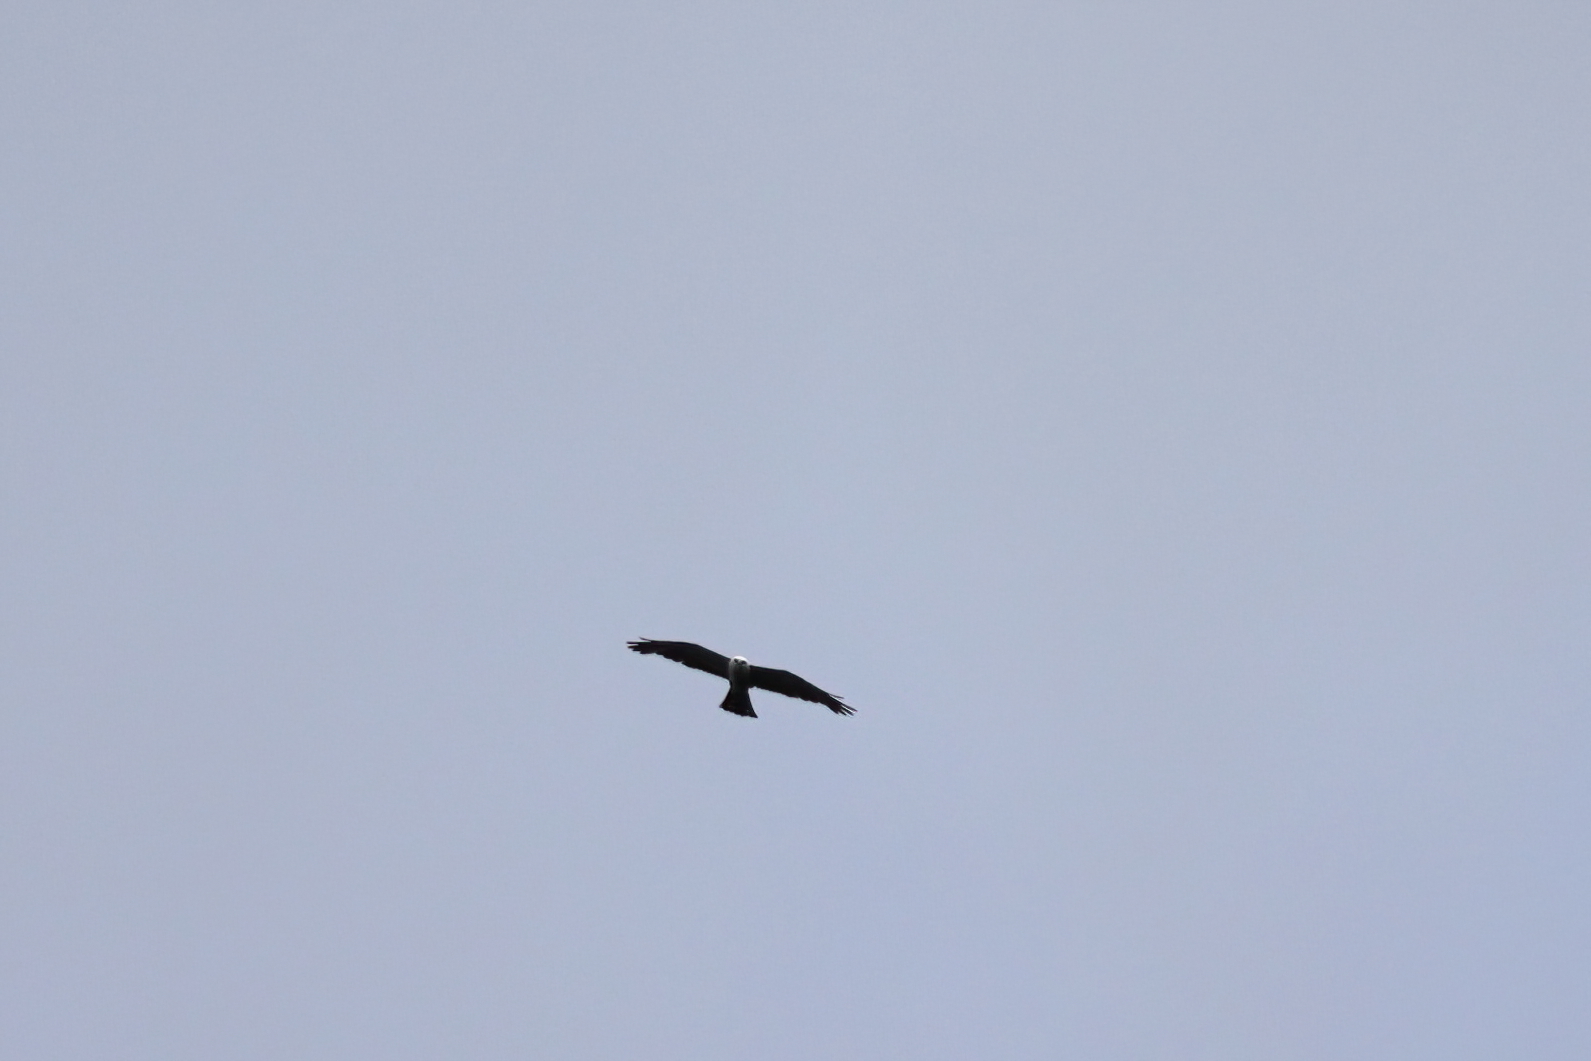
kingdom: Animalia
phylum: Chordata
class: Aves
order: Accipitriformes
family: Accipitridae
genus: Ictinia
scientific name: Ictinia mississippiensis
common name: Mississippi kite
